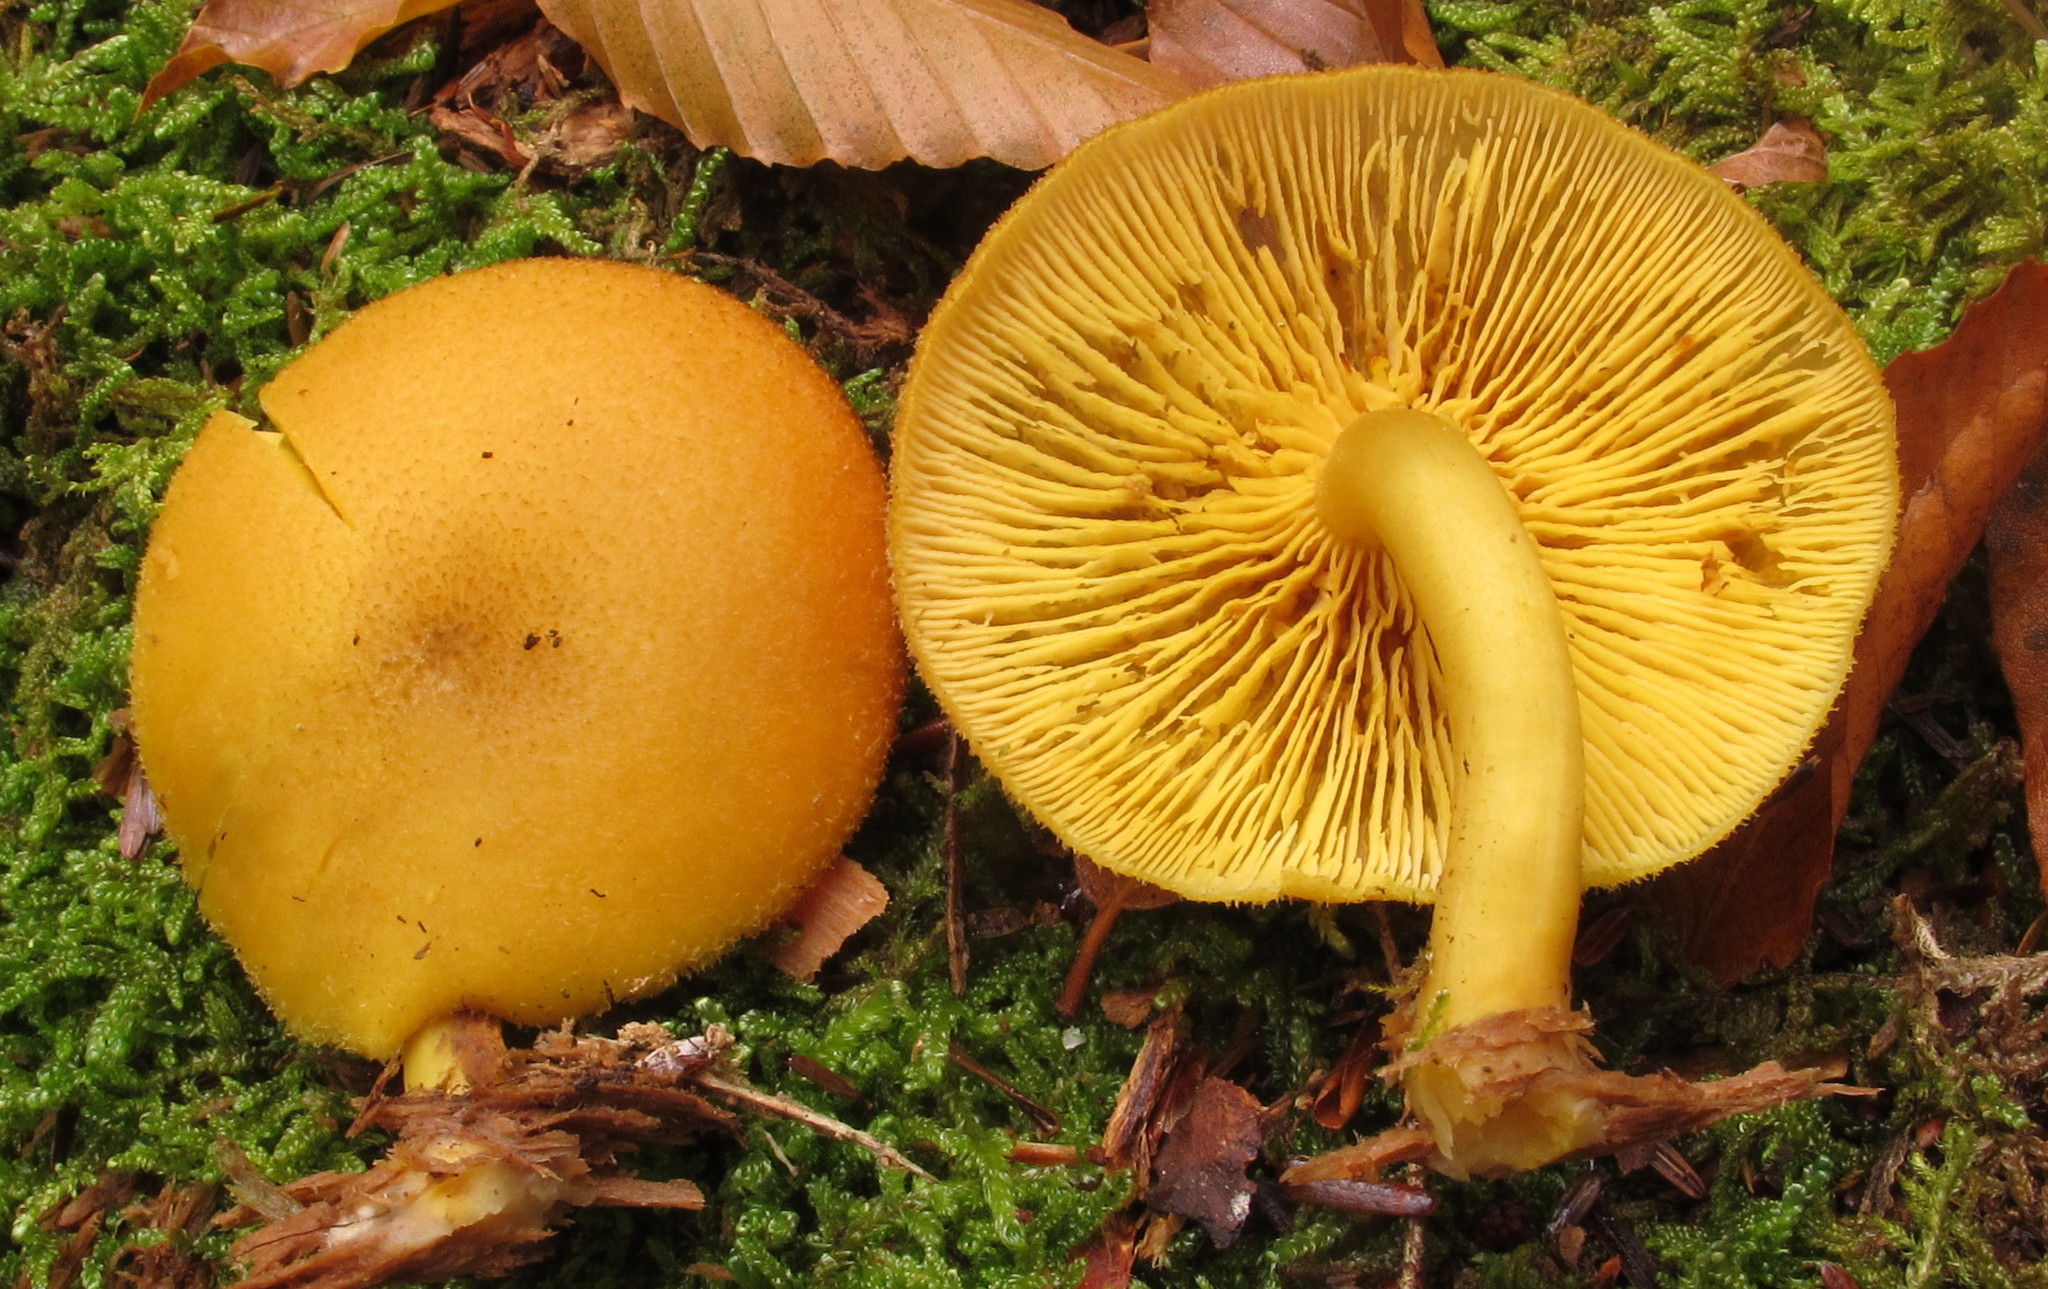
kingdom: Fungi
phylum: Basidiomycota
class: Agaricomycetes
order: Agaricales
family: Tricholomataceae
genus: Tricholomopsis
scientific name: Tricholomopsis decora
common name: Prunes and custard
